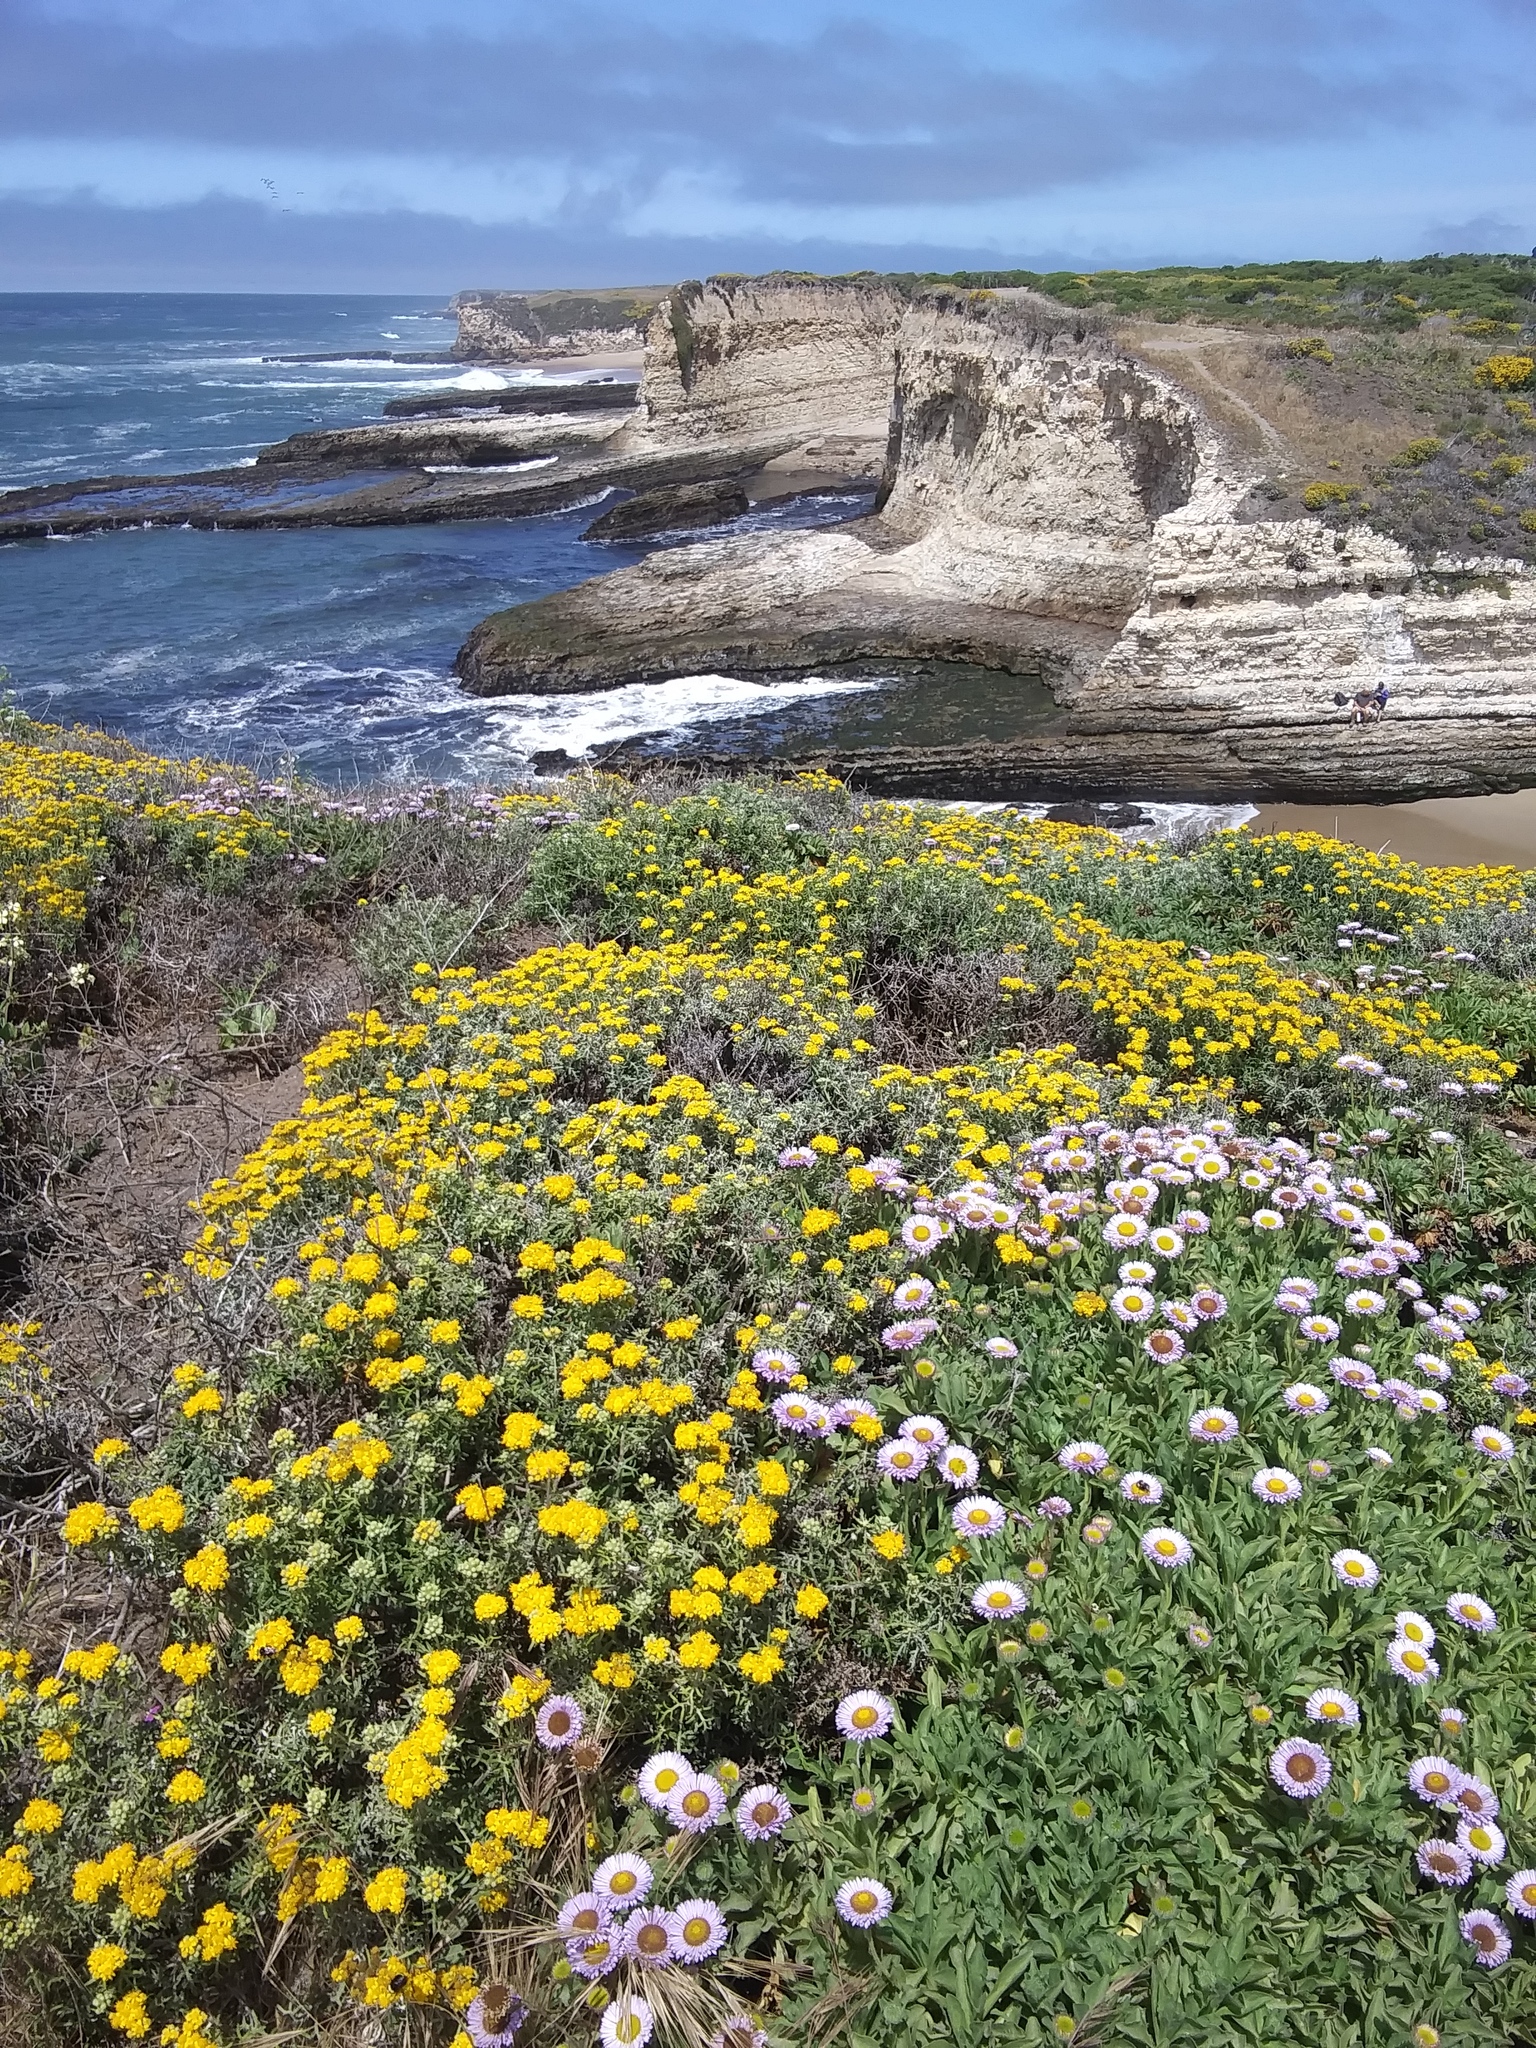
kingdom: Plantae
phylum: Tracheophyta
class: Magnoliopsida
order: Asterales
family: Asteraceae
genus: Erigeron
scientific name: Erigeron glaucus
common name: Seaside daisy
